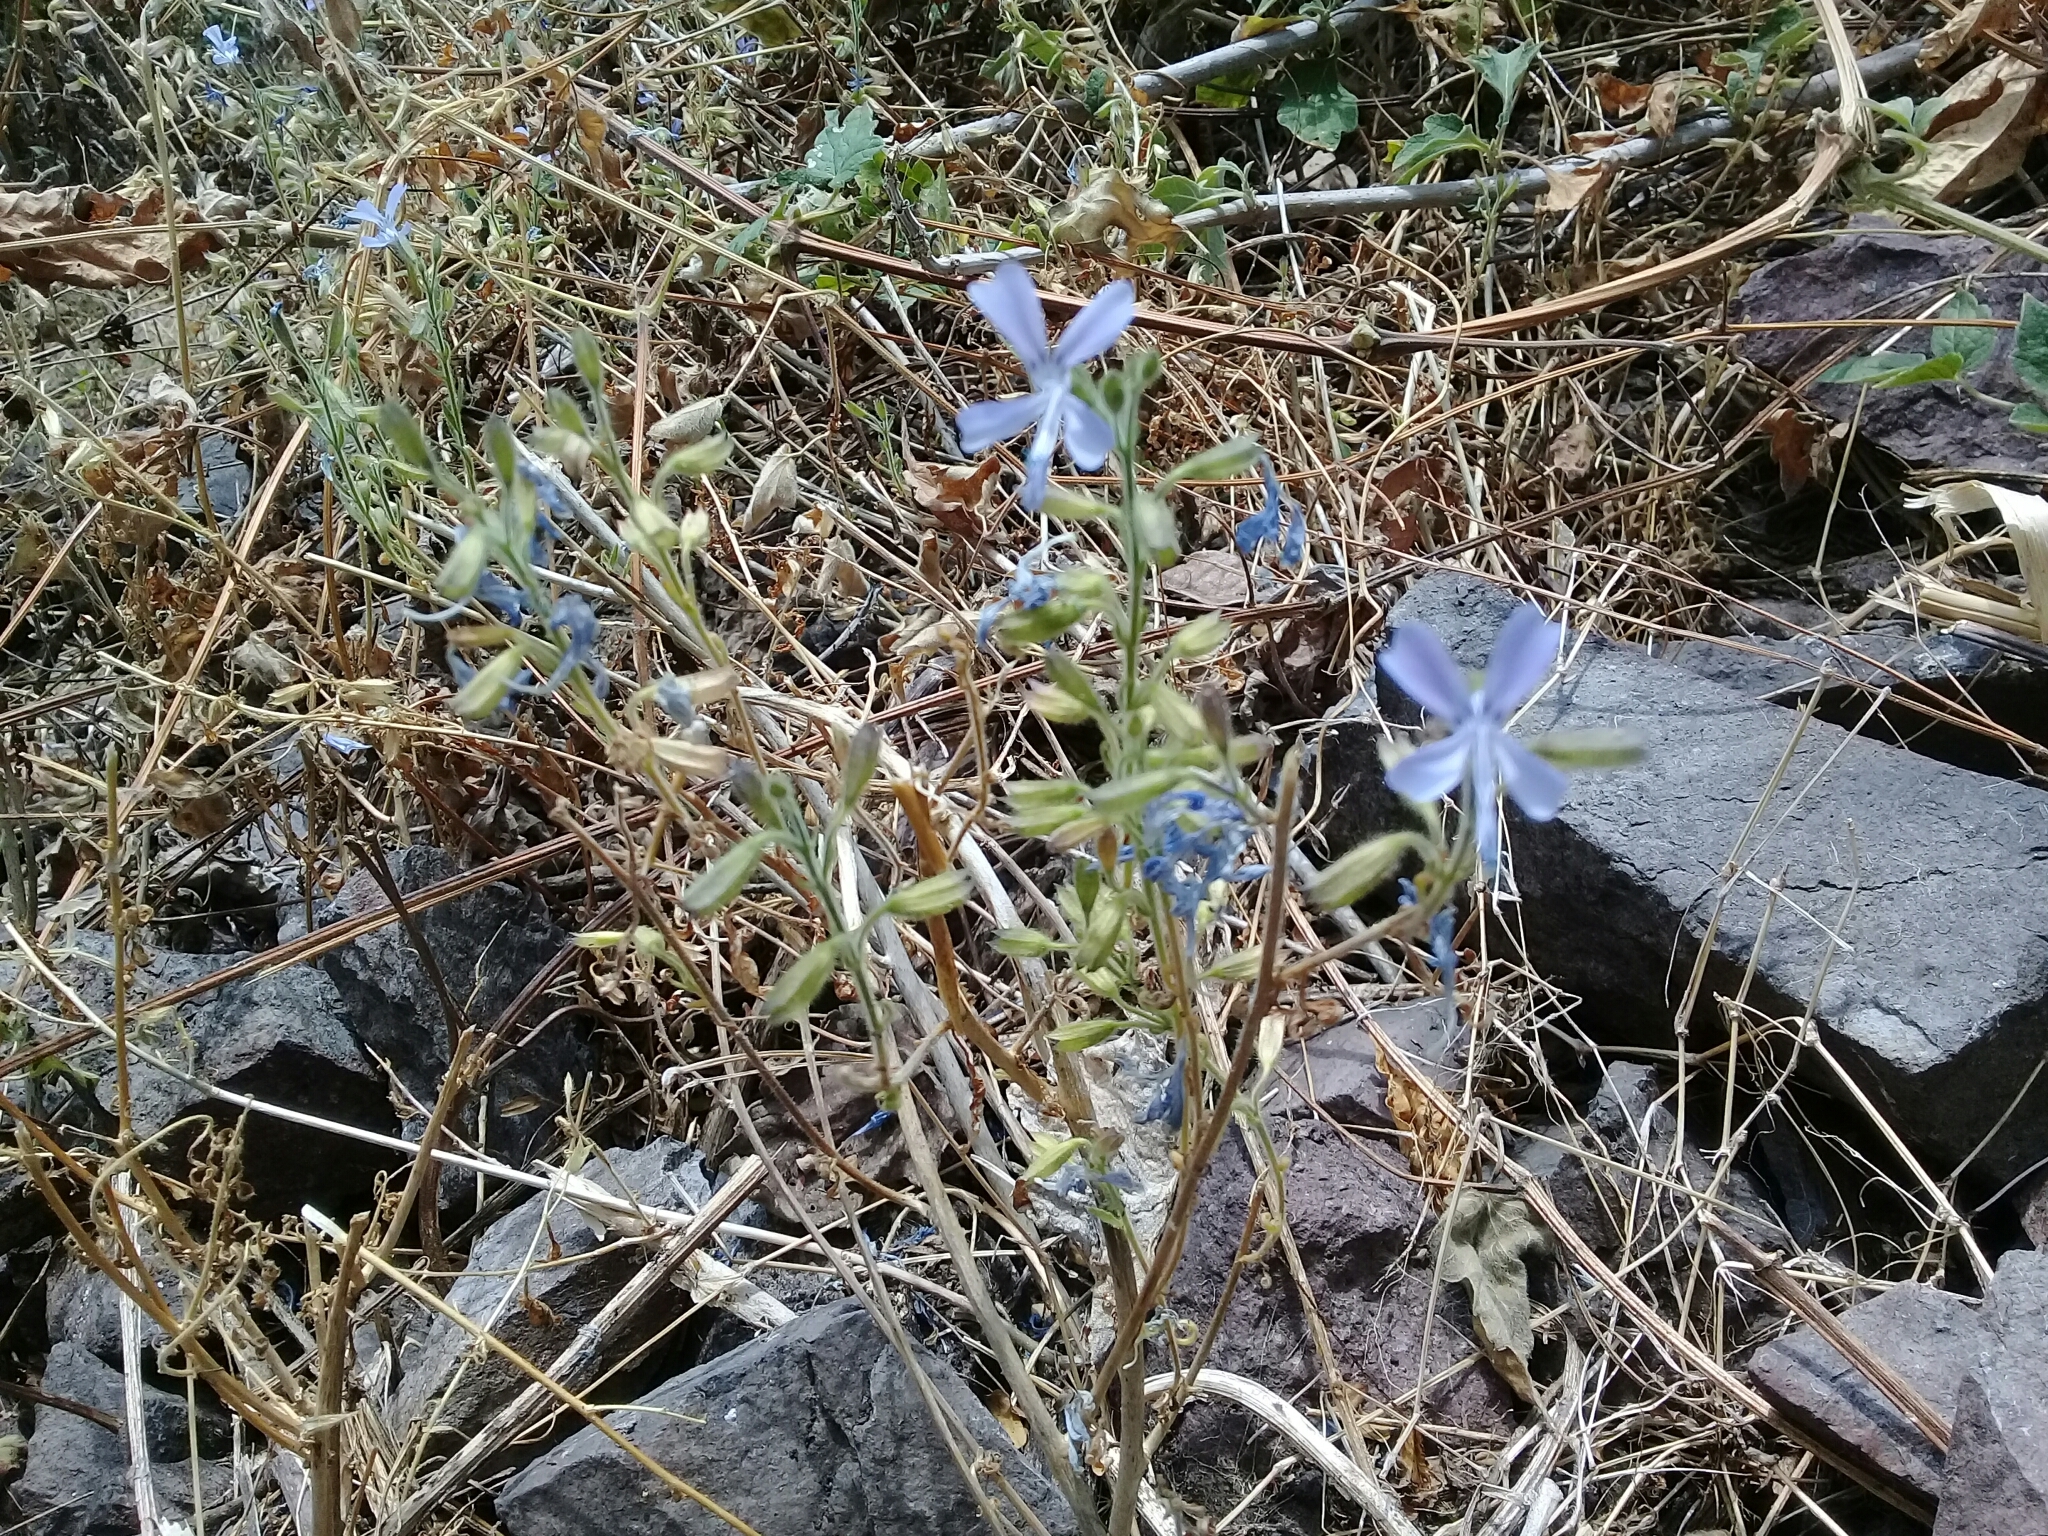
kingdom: Plantae
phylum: Tracheophyta
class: Magnoliopsida
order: Ericales
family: Polemoniaceae
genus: Bonplandia
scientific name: Bonplandia geminiflora
